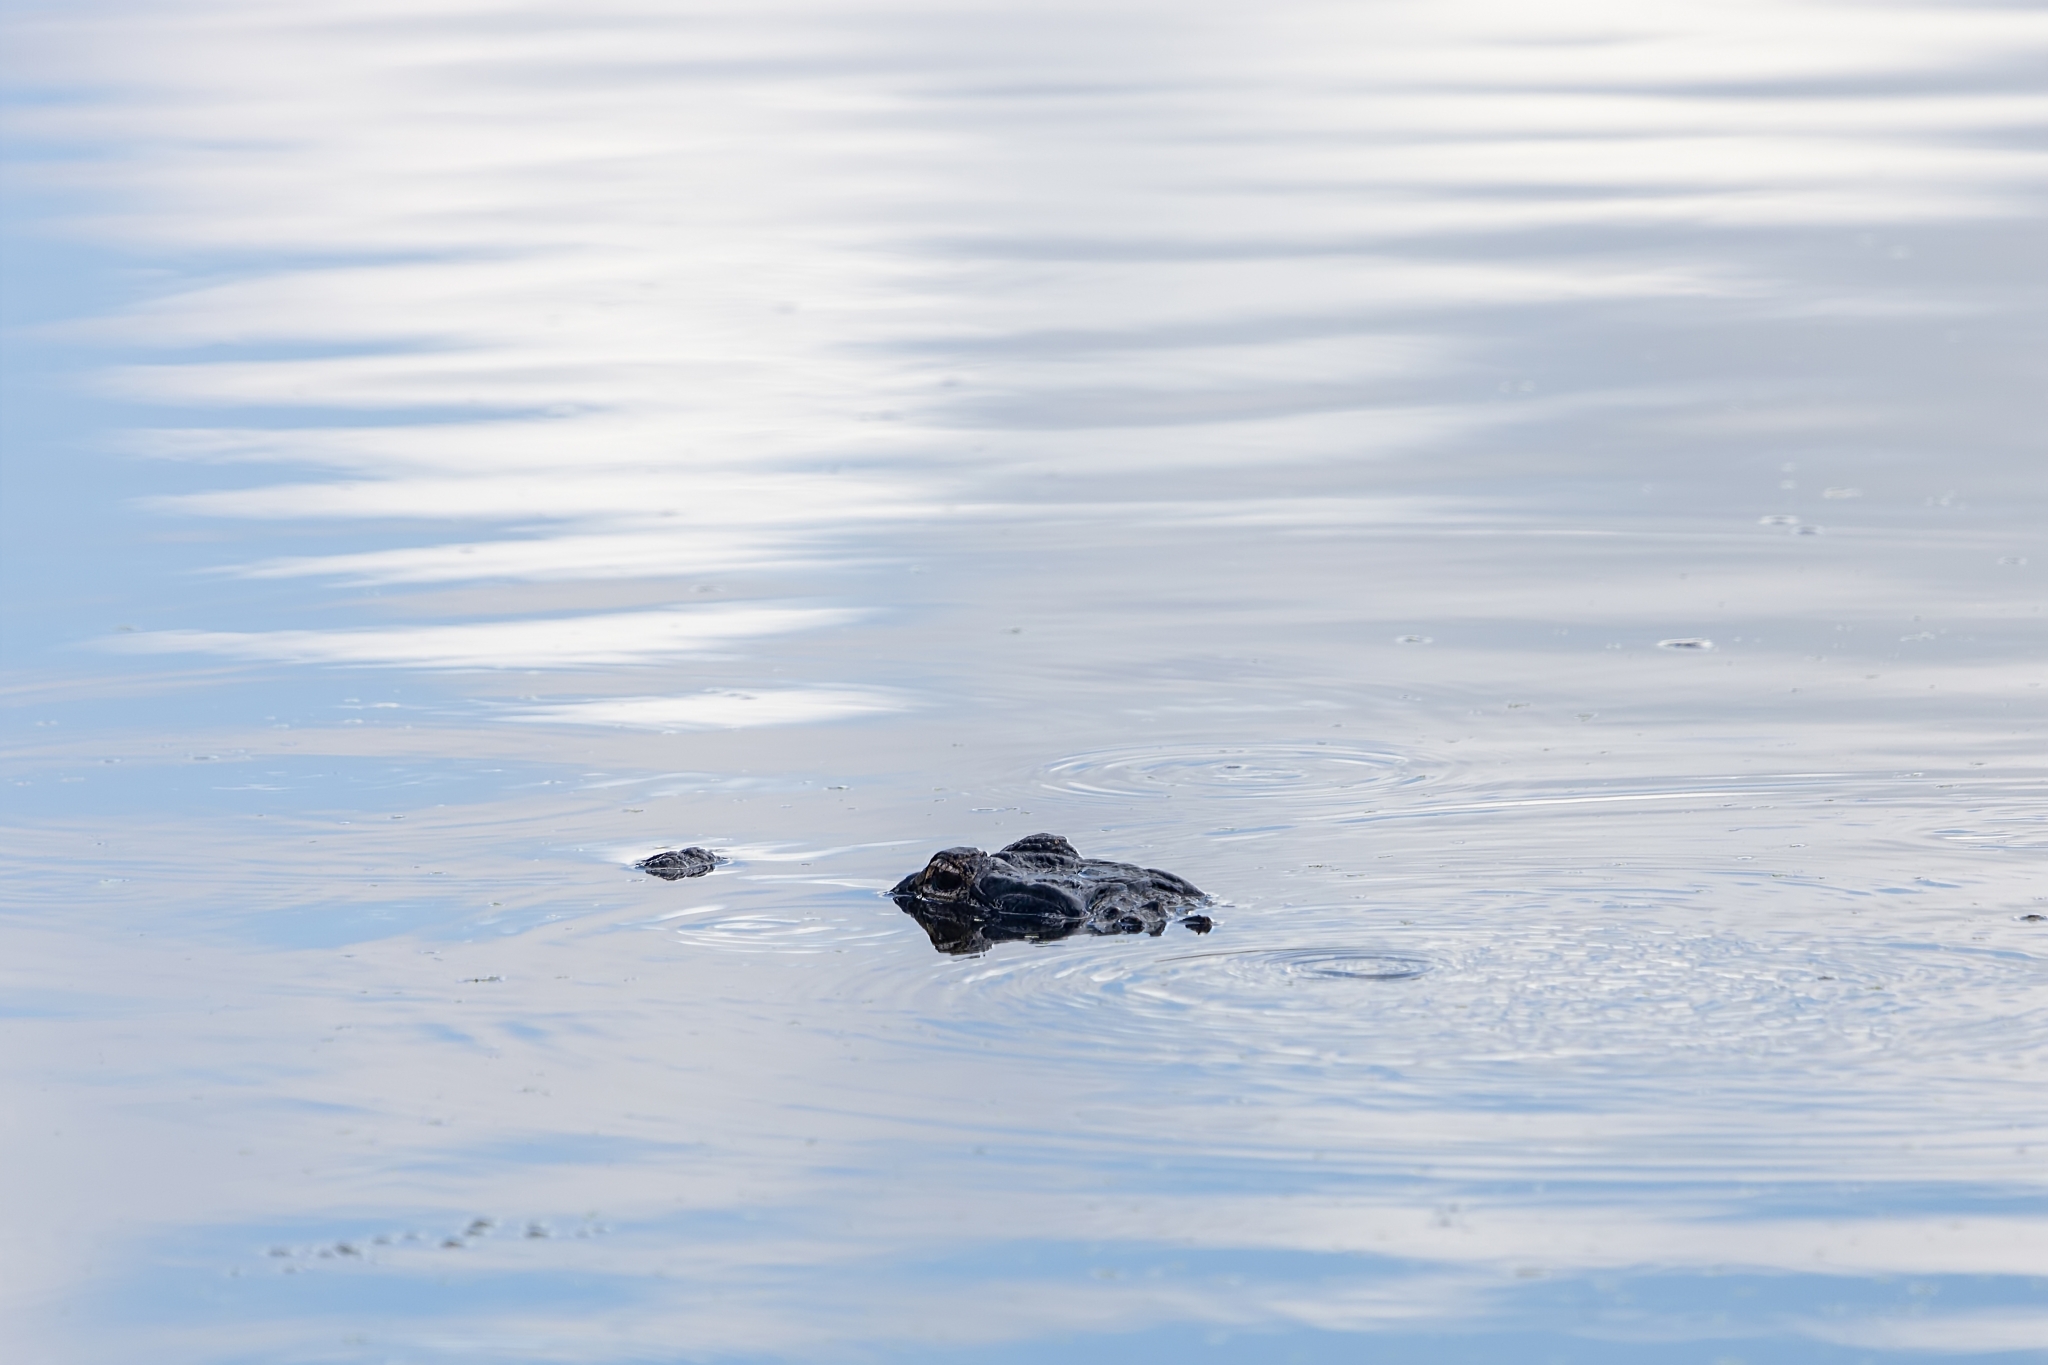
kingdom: Animalia
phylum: Chordata
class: Crocodylia
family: Alligatoridae
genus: Alligator
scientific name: Alligator mississippiensis
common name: American alligator
